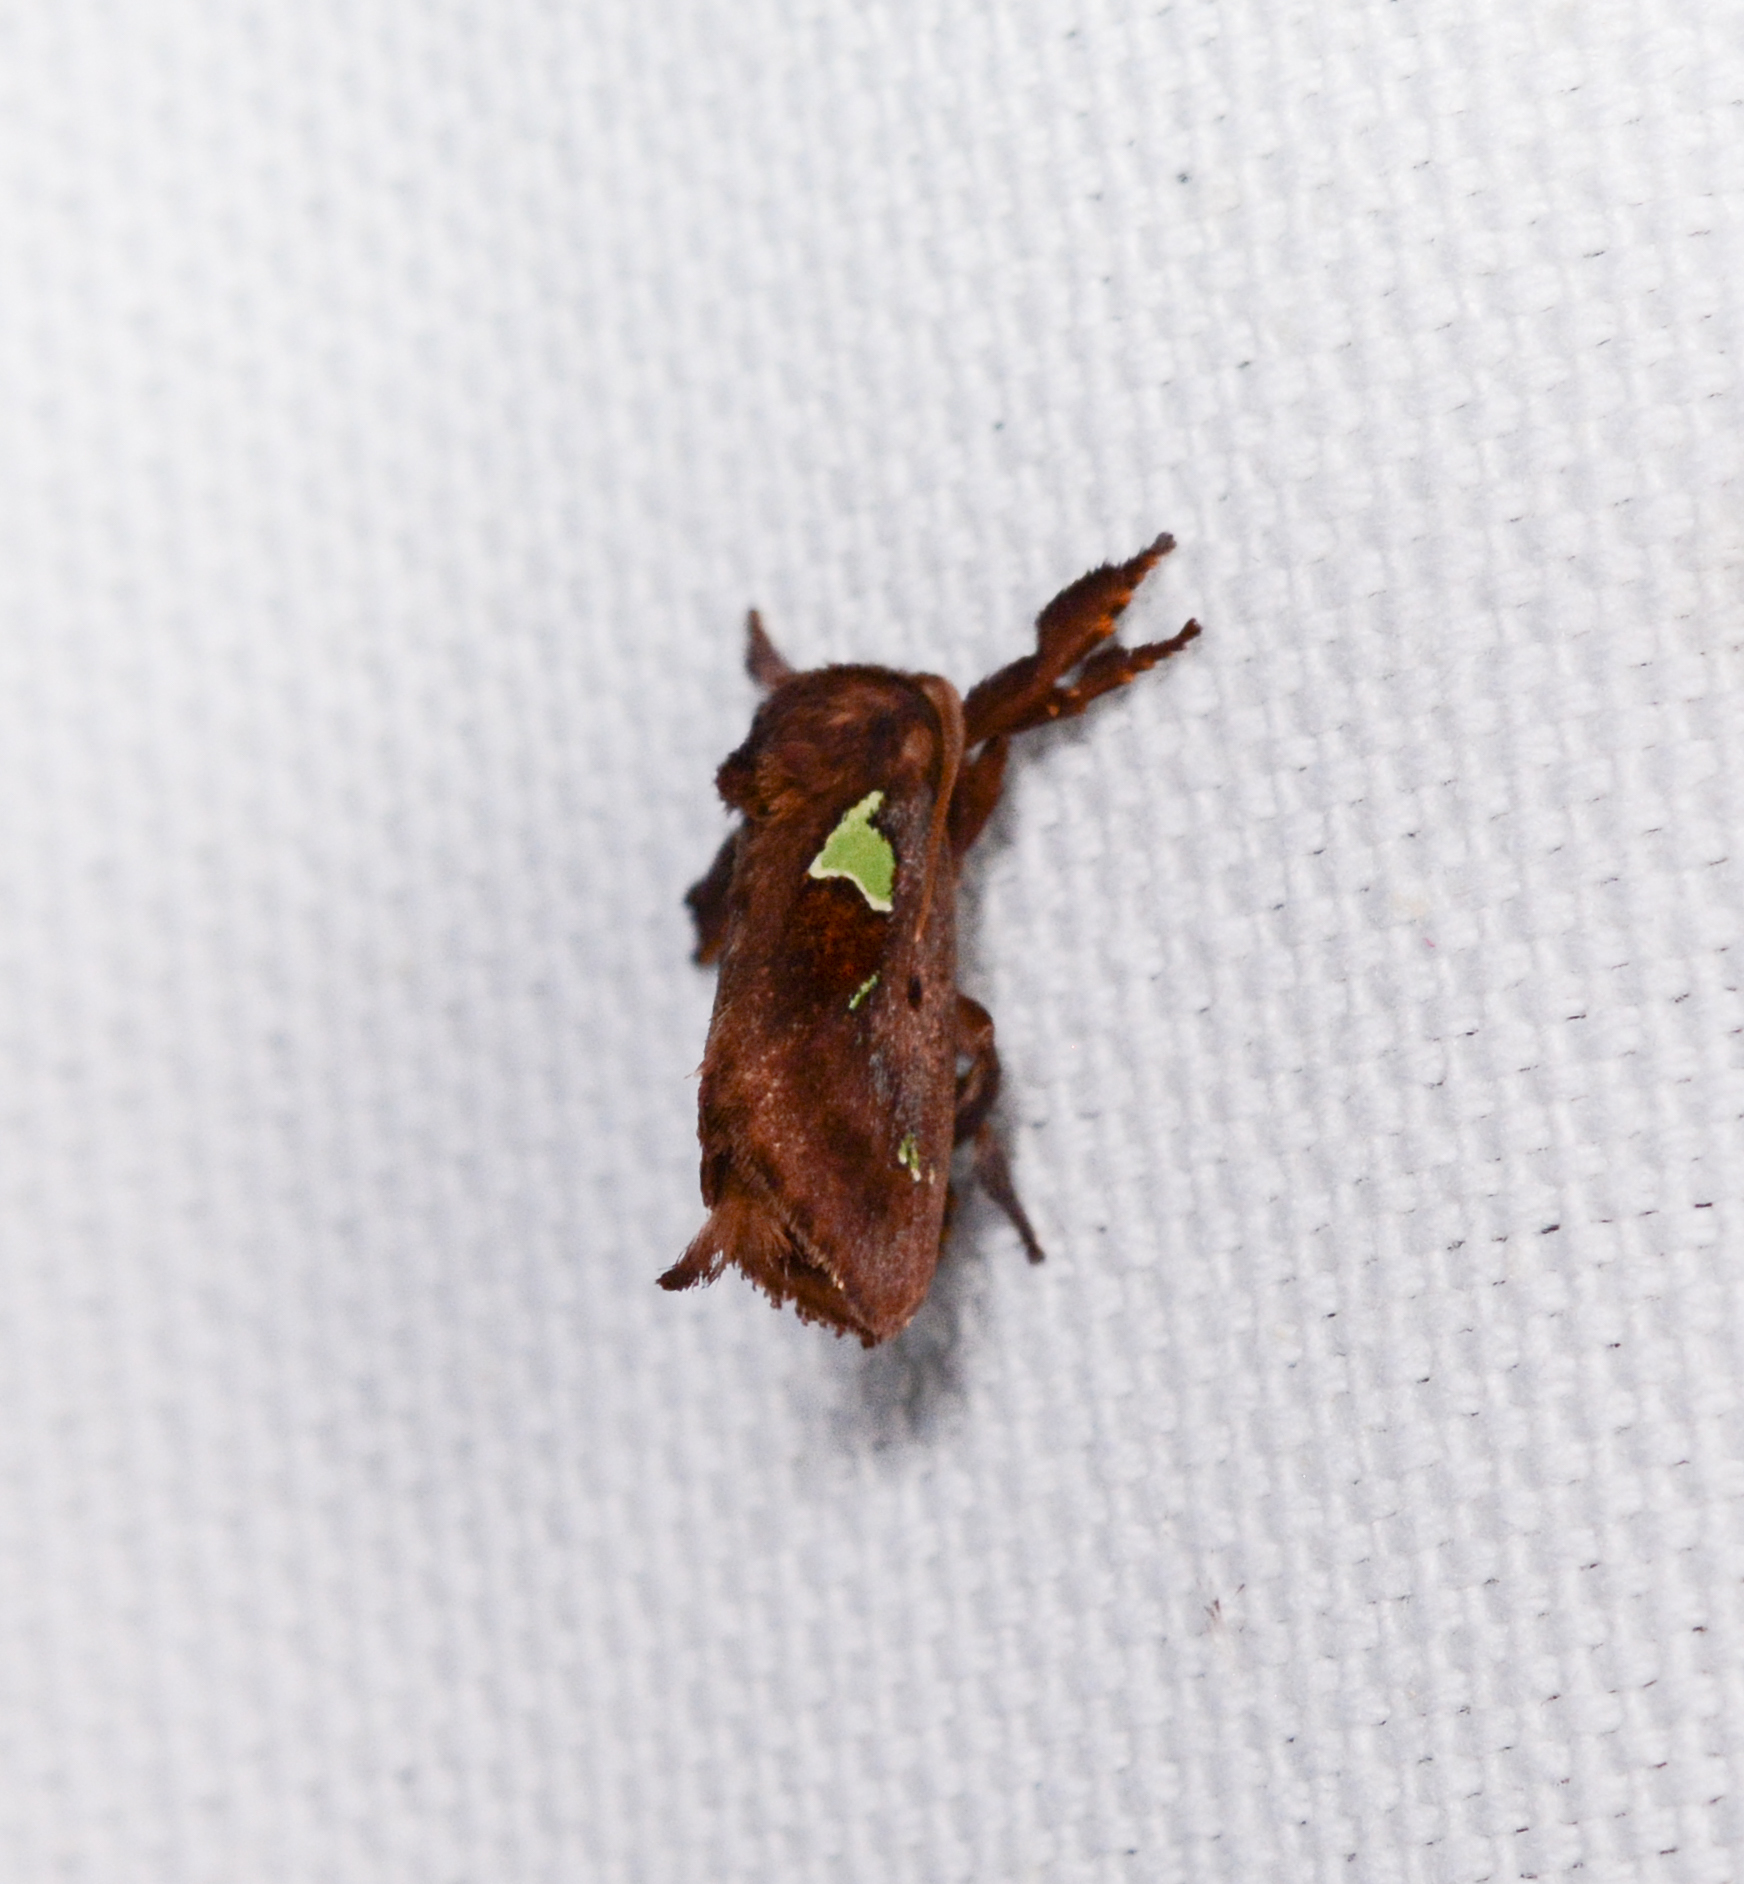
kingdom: Animalia
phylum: Arthropoda
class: Insecta
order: Lepidoptera
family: Limacodidae
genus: Euclea
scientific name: Euclea delphinii
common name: Spiny oak-slug moth
